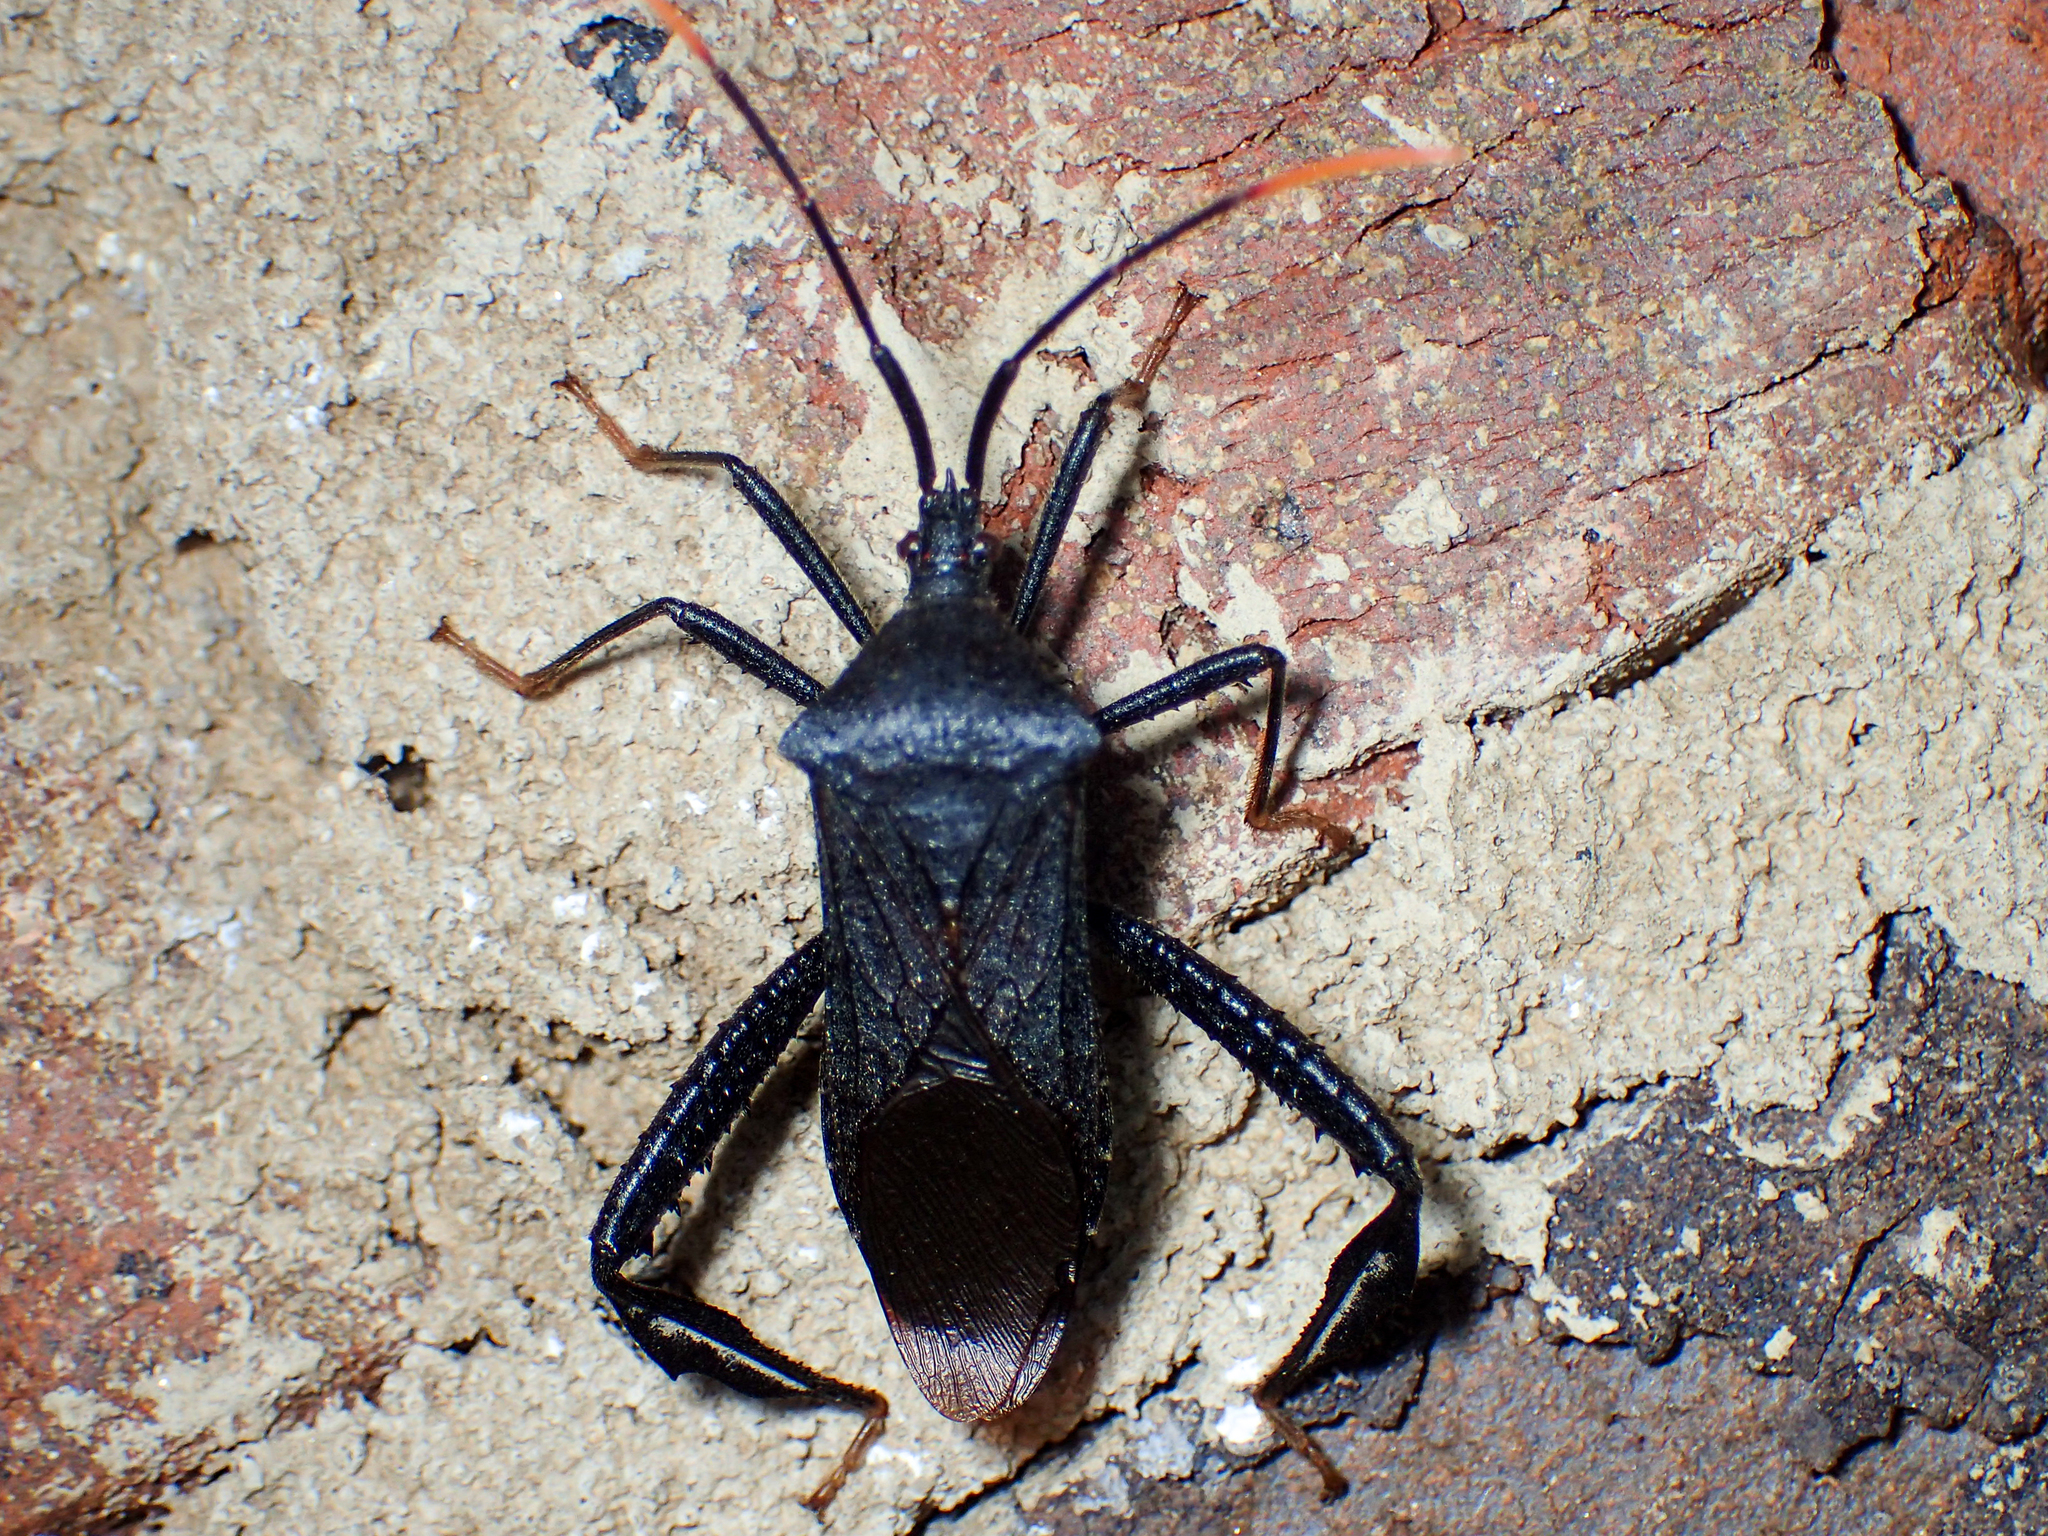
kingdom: Animalia
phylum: Arthropoda
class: Insecta
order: Hemiptera
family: Coreidae
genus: Acanthocephala
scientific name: Acanthocephala terminalis
